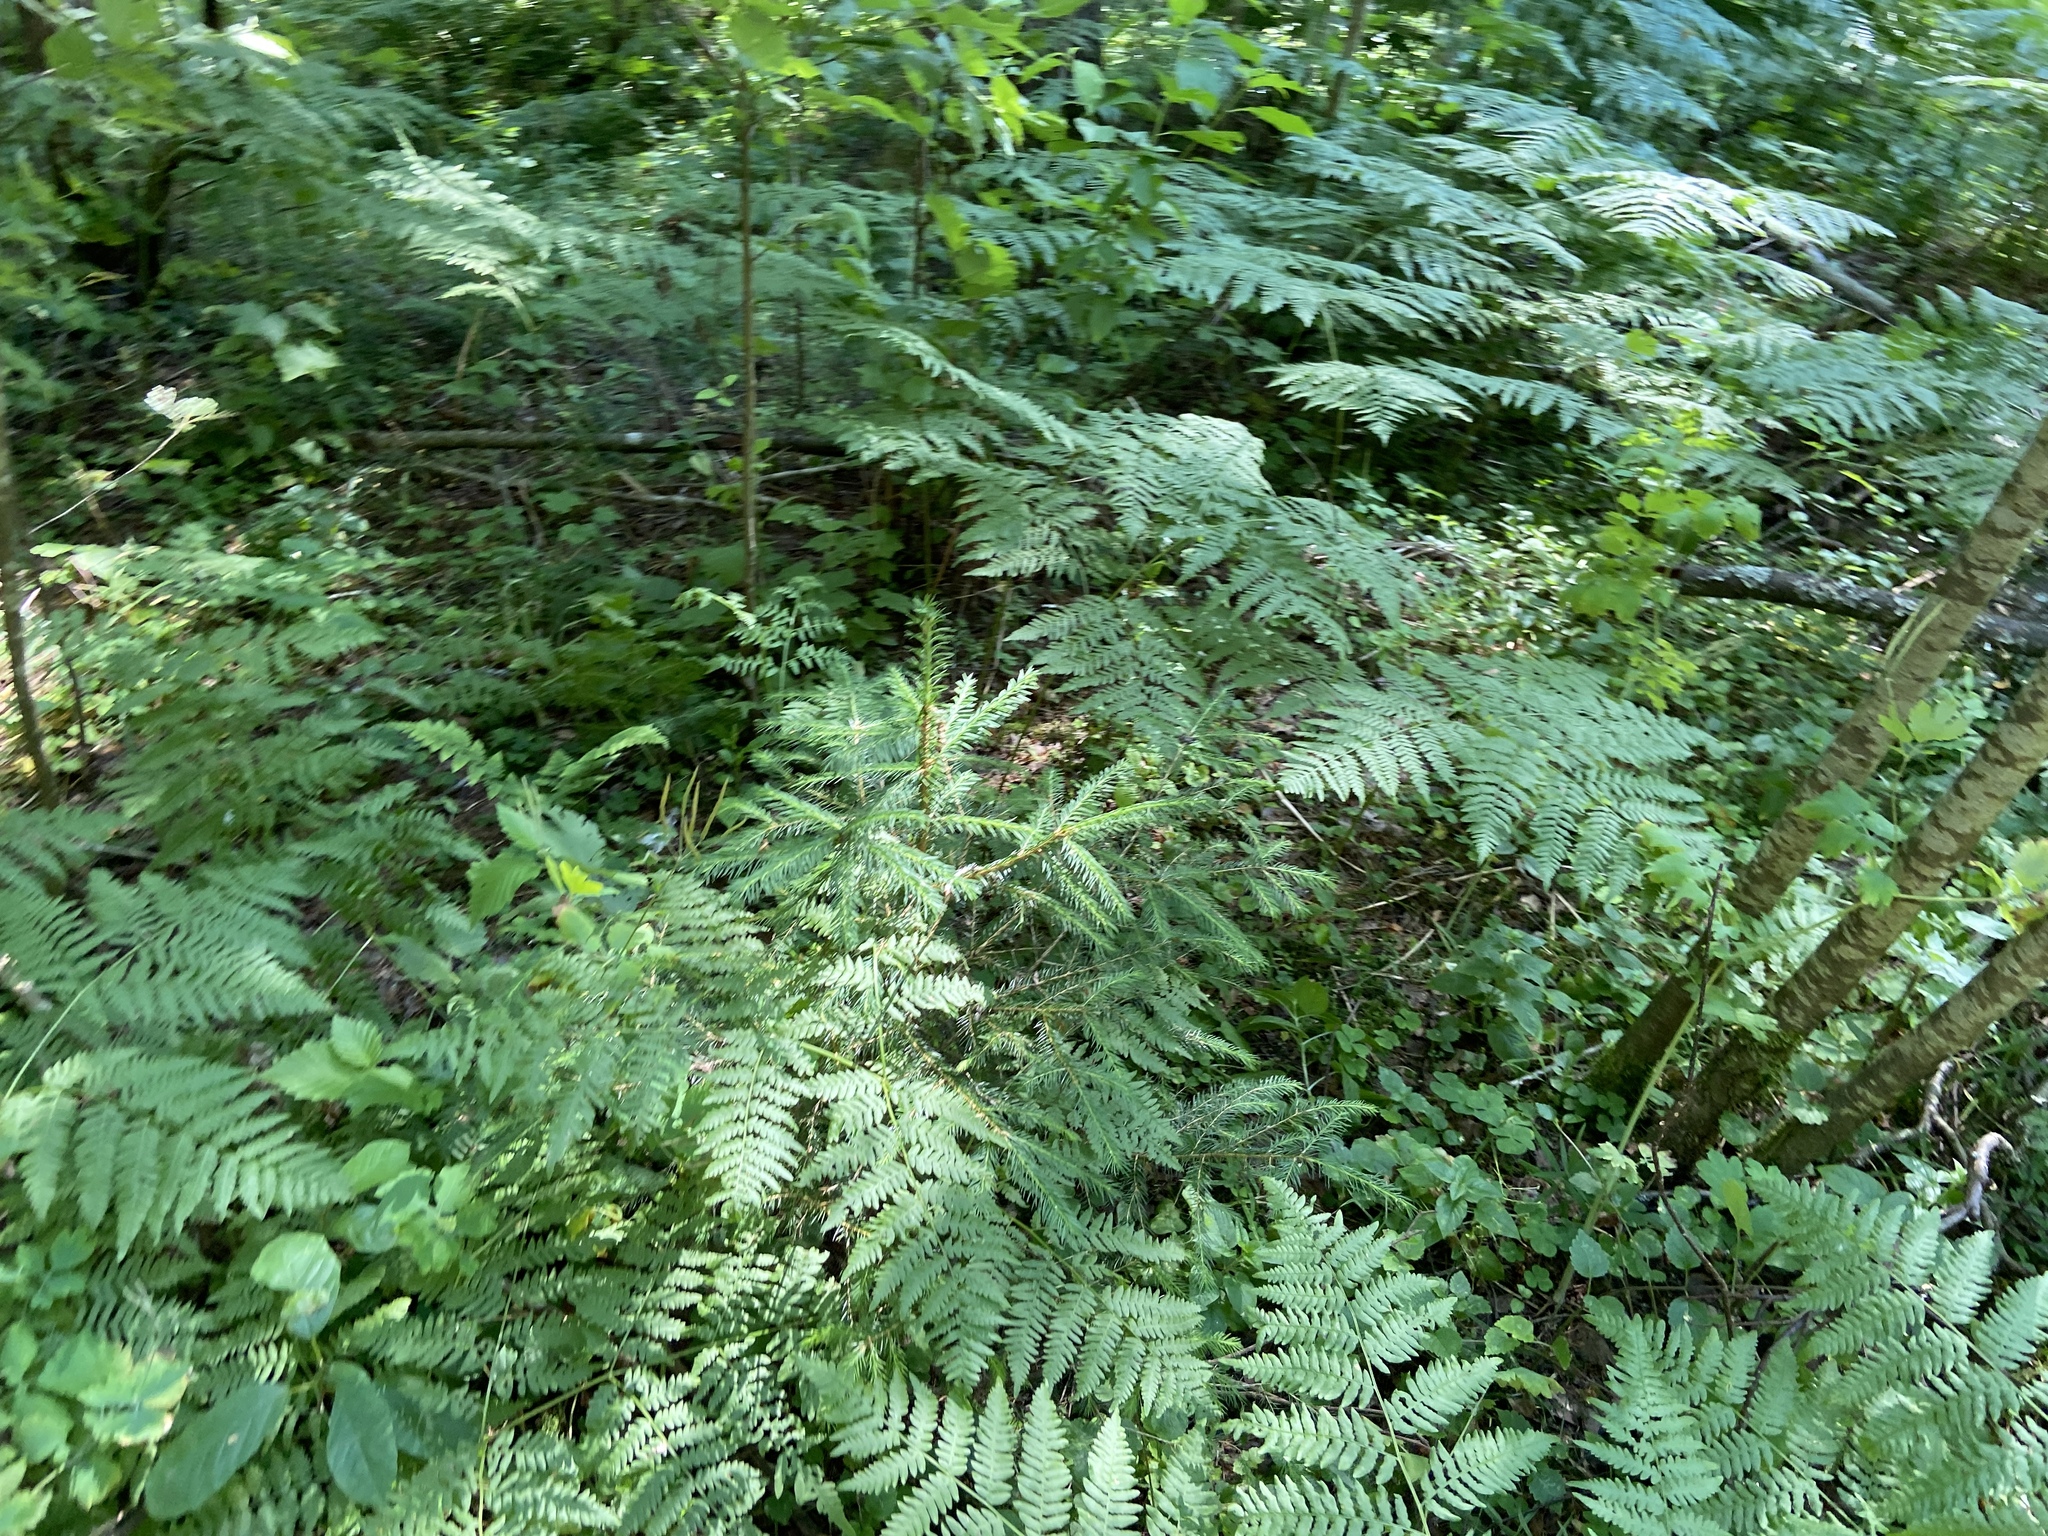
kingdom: Plantae
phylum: Tracheophyta
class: Polypodiopsida
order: Polypodiales
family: Dennstaedtiaceae
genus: Pteridium
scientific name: Pteridium aquilinum
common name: Bracken
